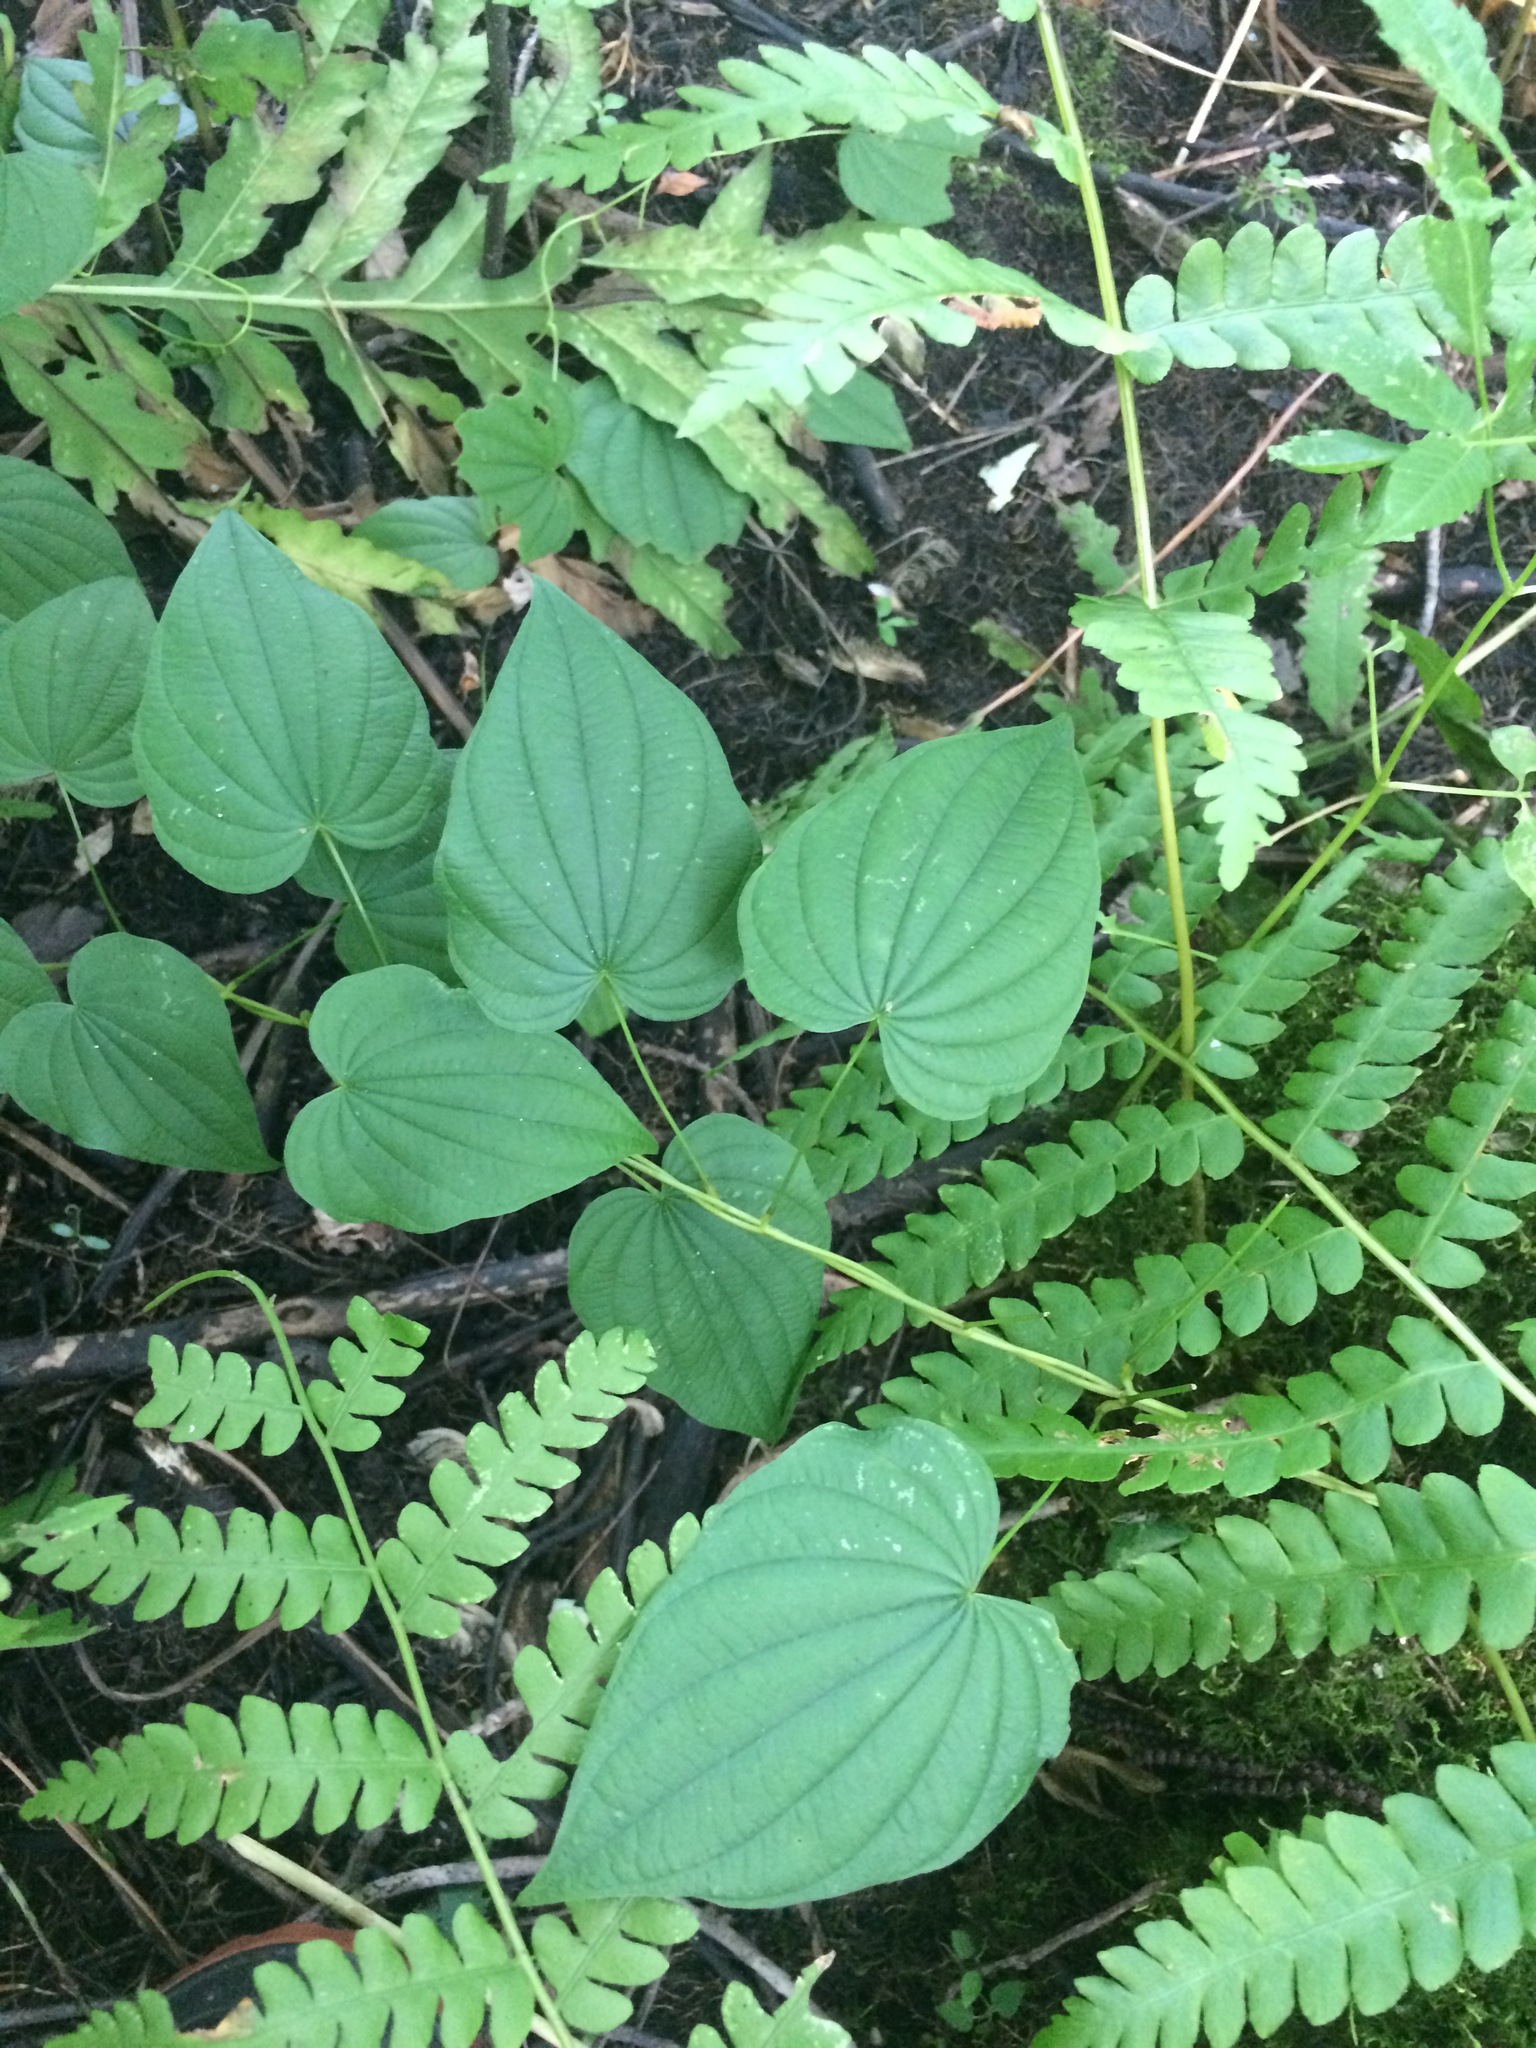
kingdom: Plantae
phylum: Tracheophyta
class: Liliopsida
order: Dioscoreales
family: Dioscoreaceae
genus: Dioscorea
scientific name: Dioscorea villosa
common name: Wild yam
